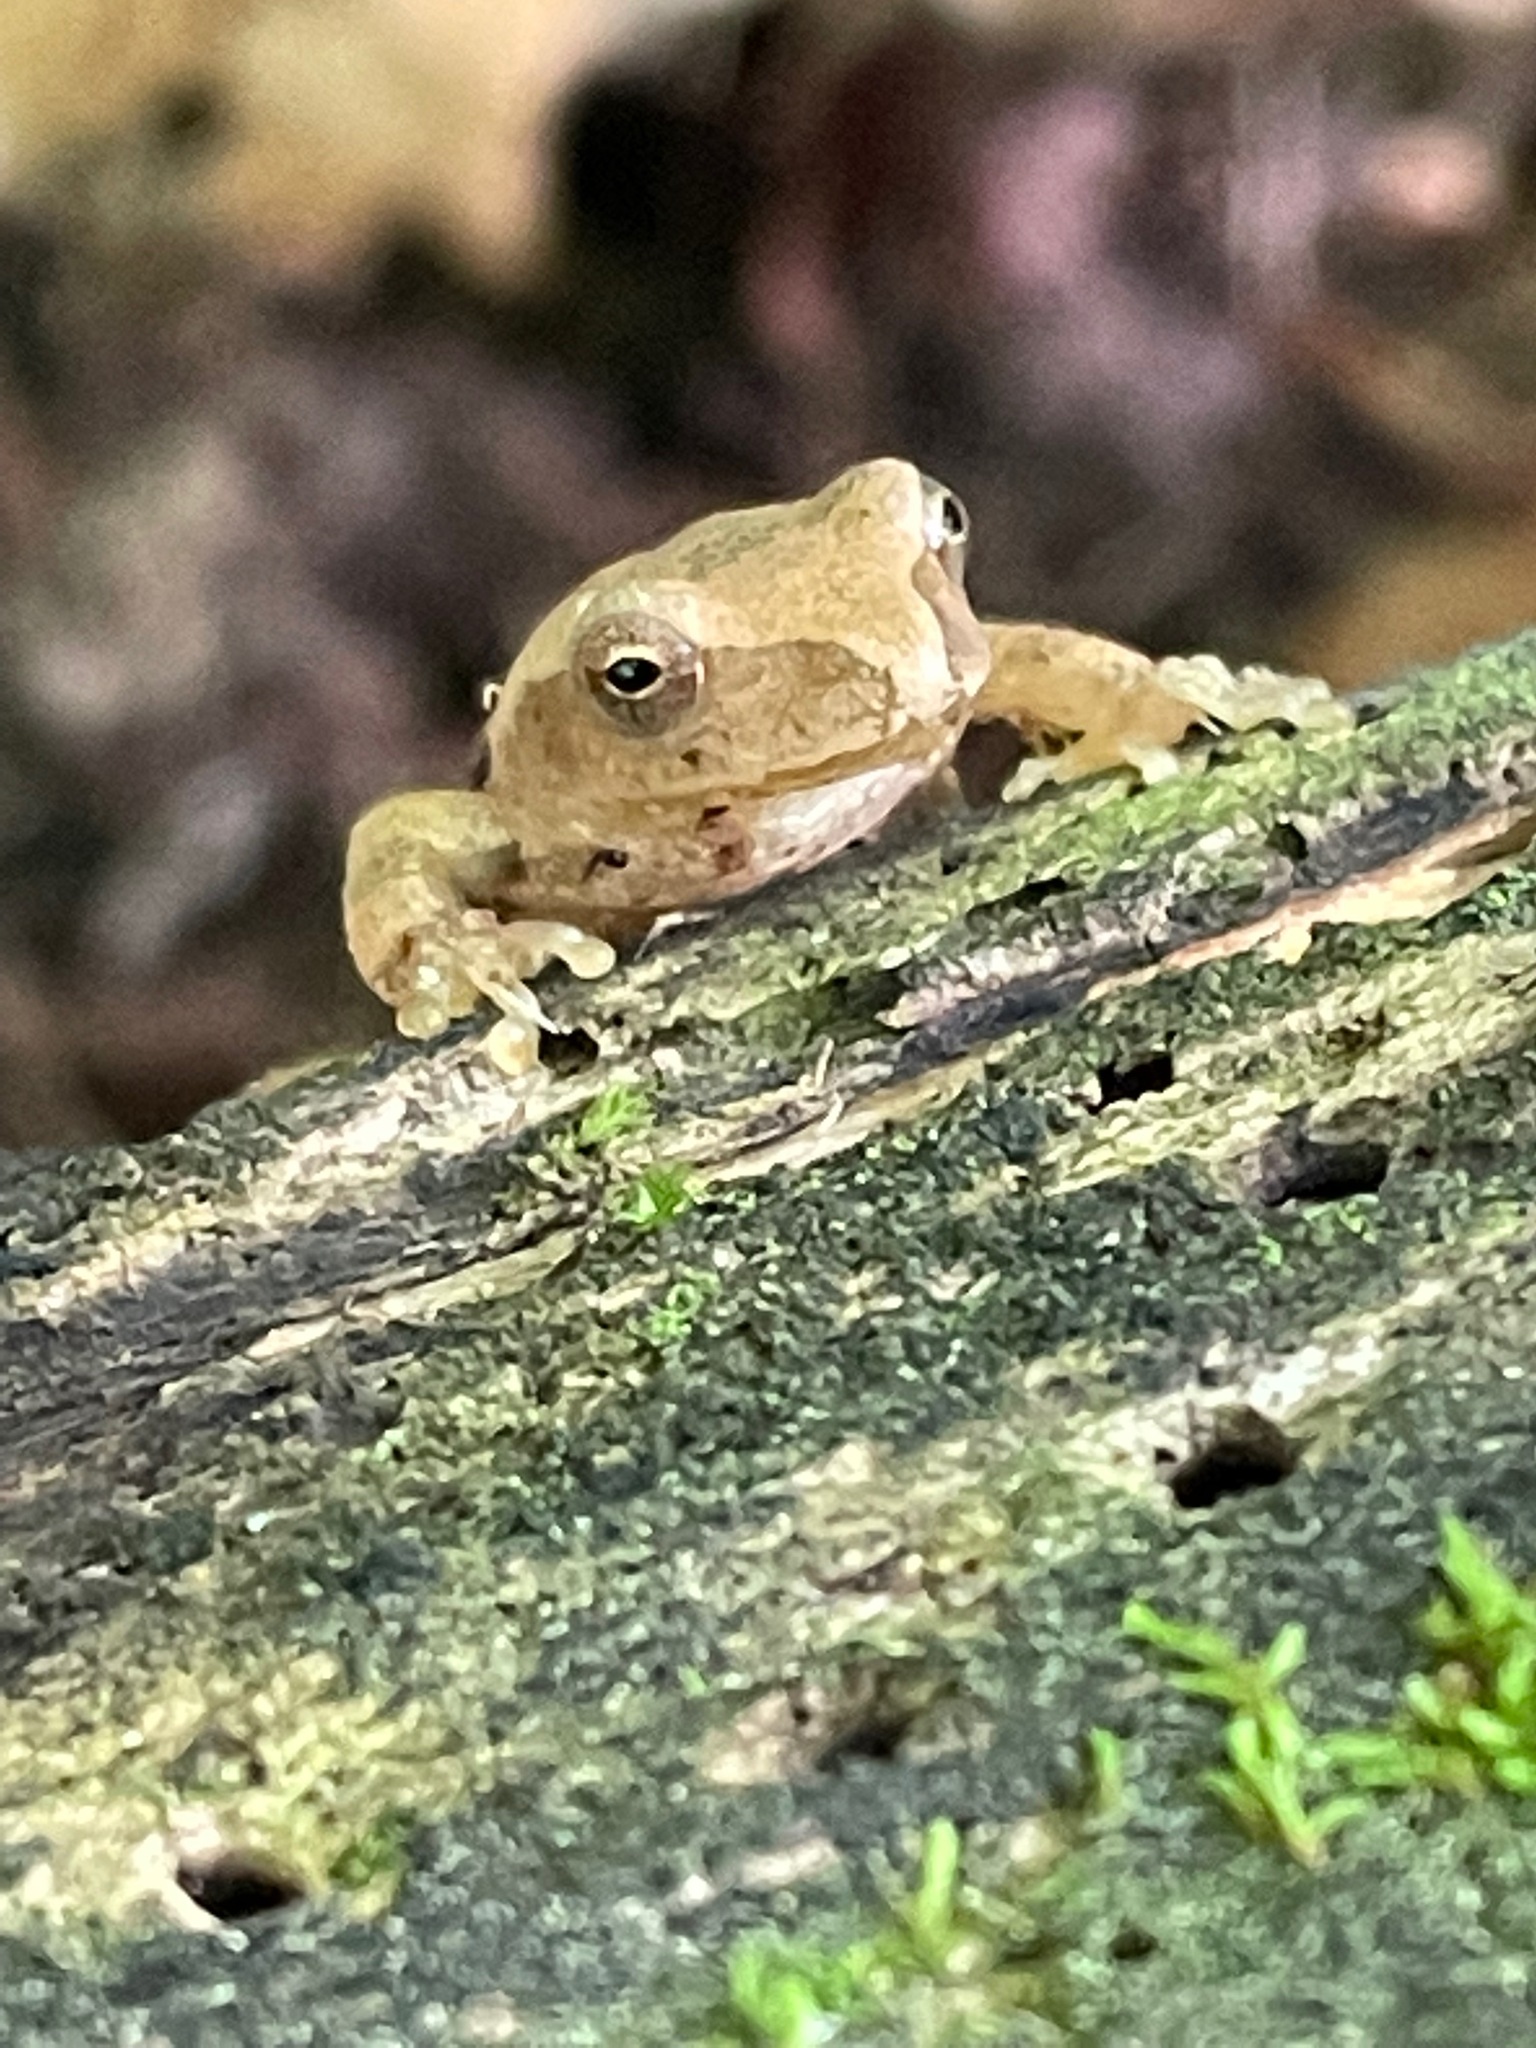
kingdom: Animalia
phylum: Chordata
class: Amphibia
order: Anura
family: Hylidae
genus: Pseudacris
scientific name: Pseudacris crucifer
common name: Spring peeper
